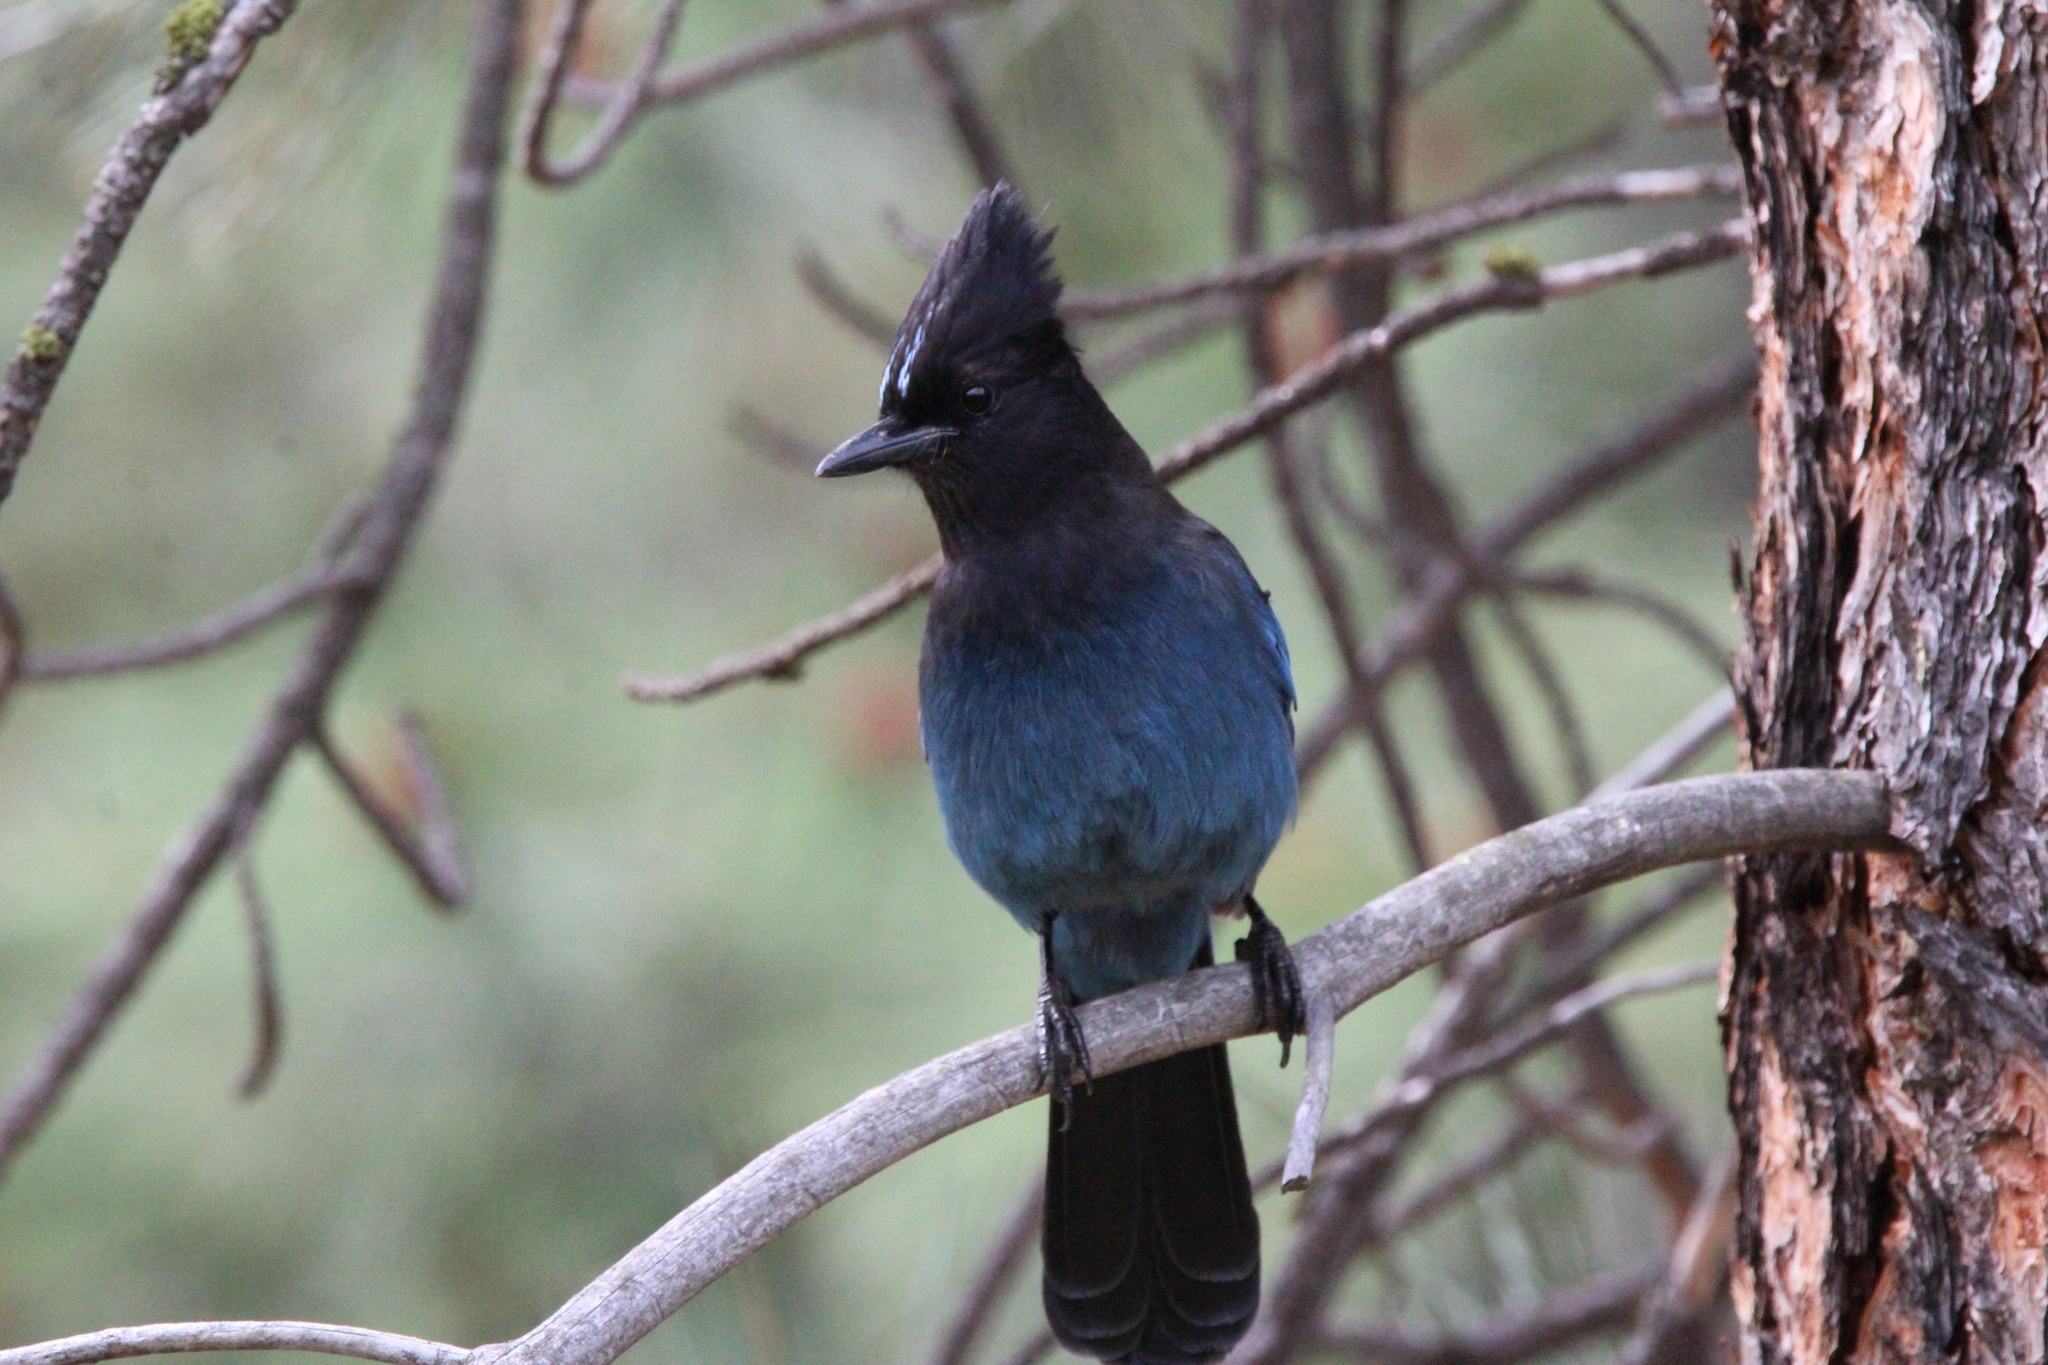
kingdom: Animalia
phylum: Chordata
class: Aves
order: Passeriformes
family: Corvidae
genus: Cyanocitta
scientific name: Cyanocitta stelleri
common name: Steller's jay
